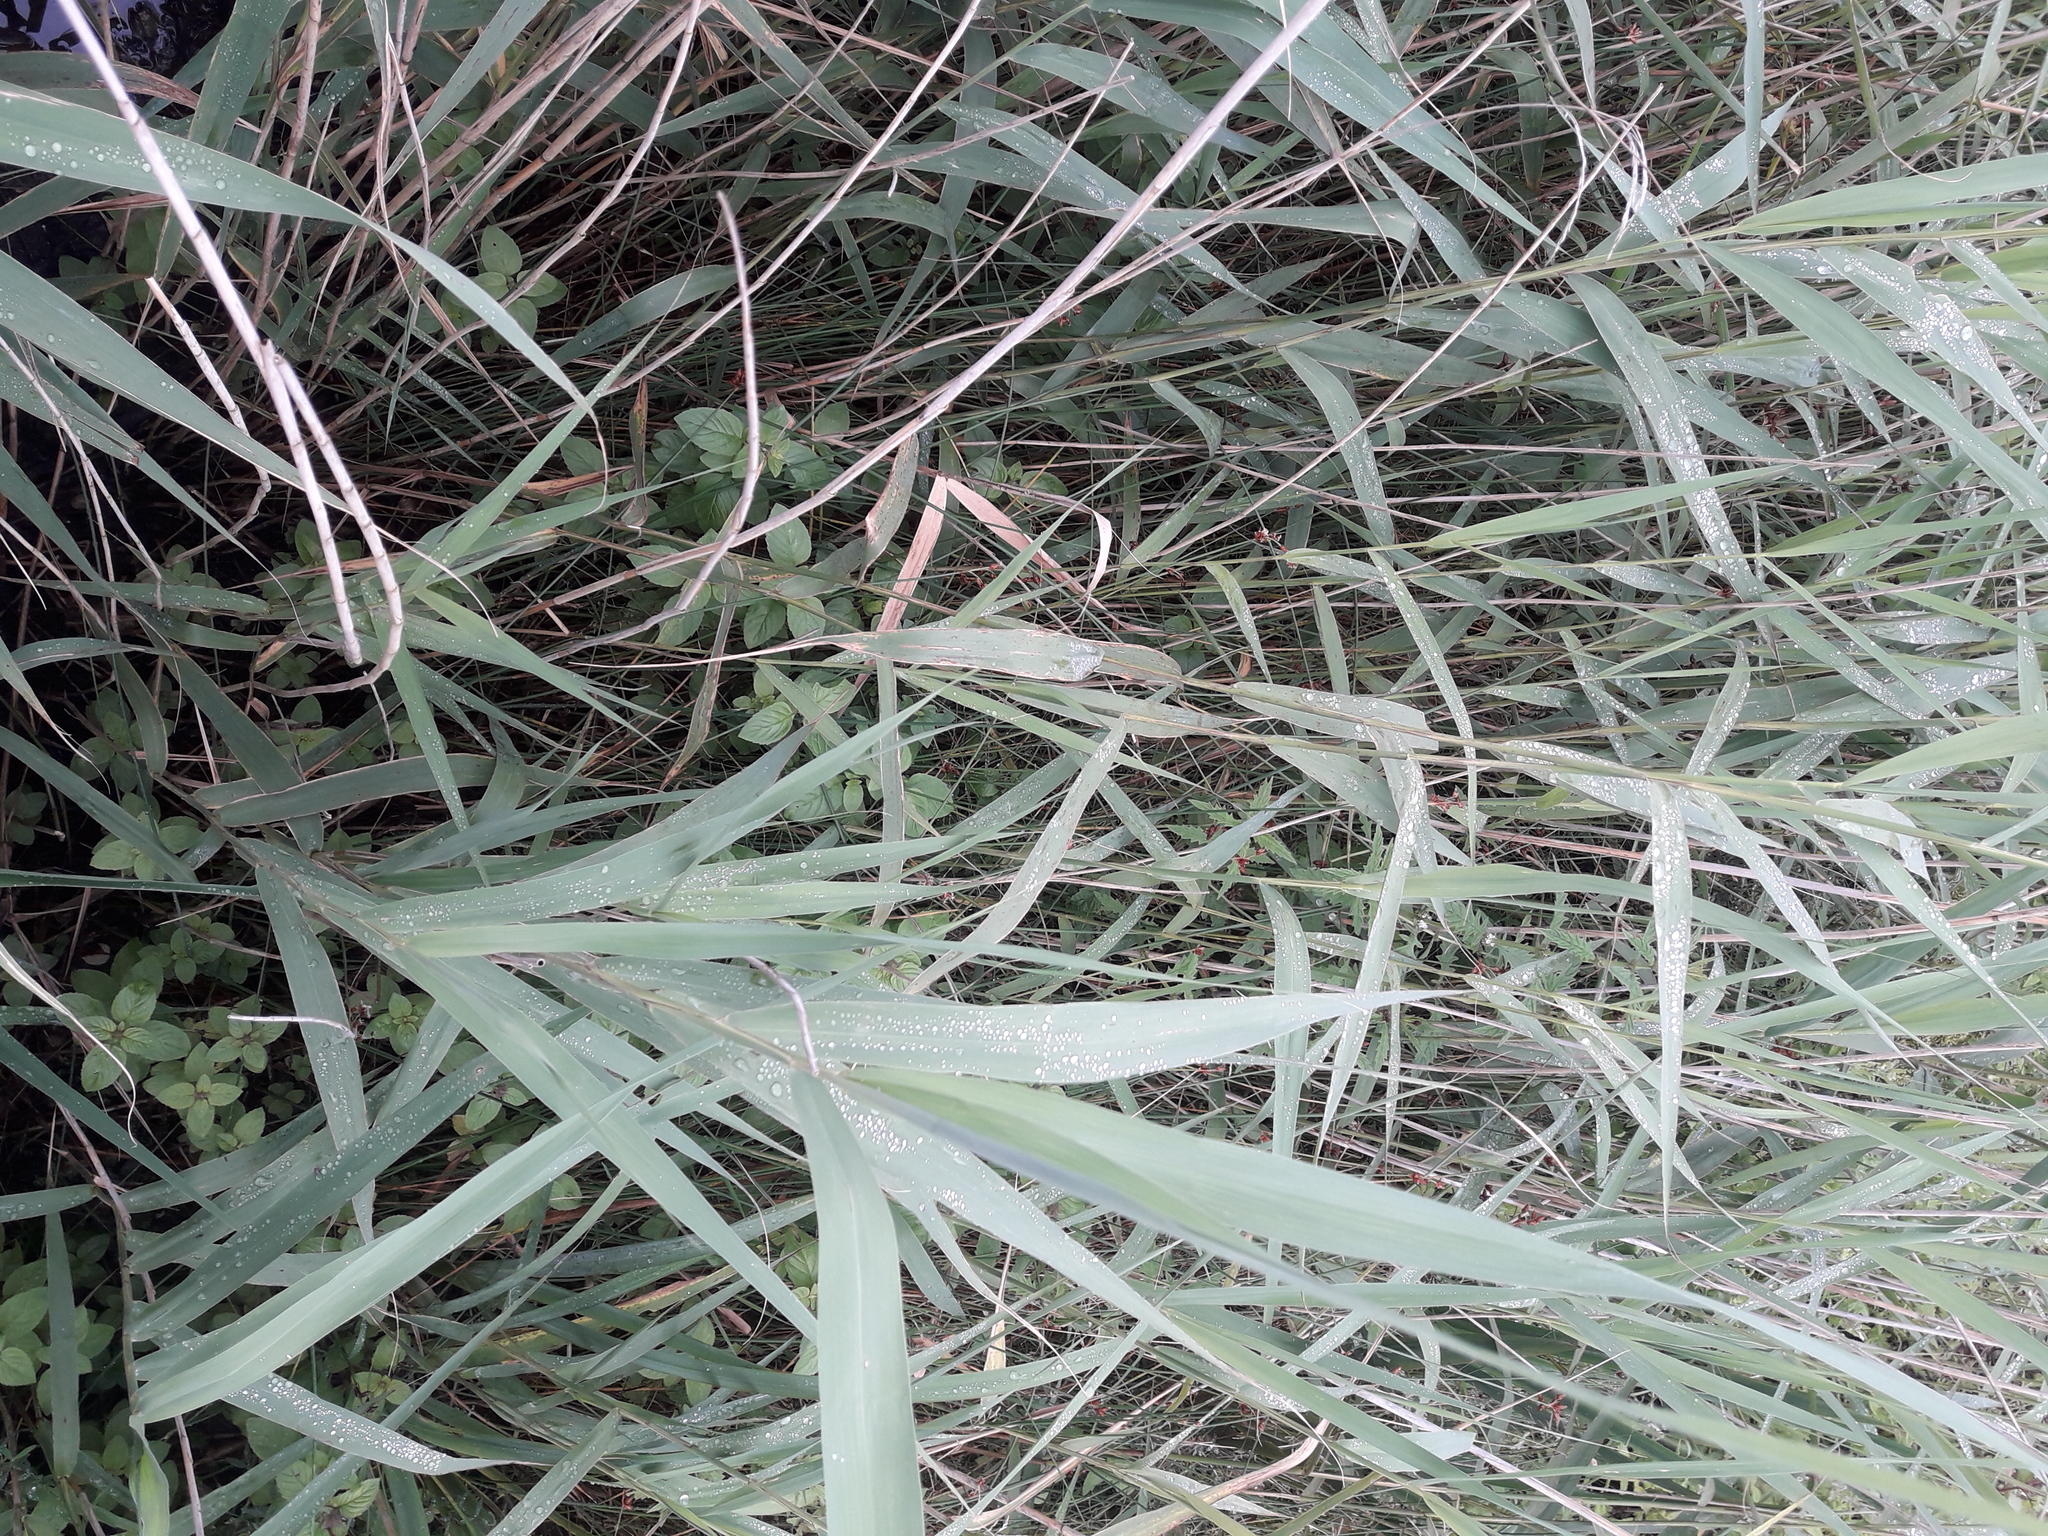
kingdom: Plantae
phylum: Tracheophyta
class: Liliopsida
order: Poales
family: Juncaceae
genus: Juncus
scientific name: Juncus effusus
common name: Soft rush
